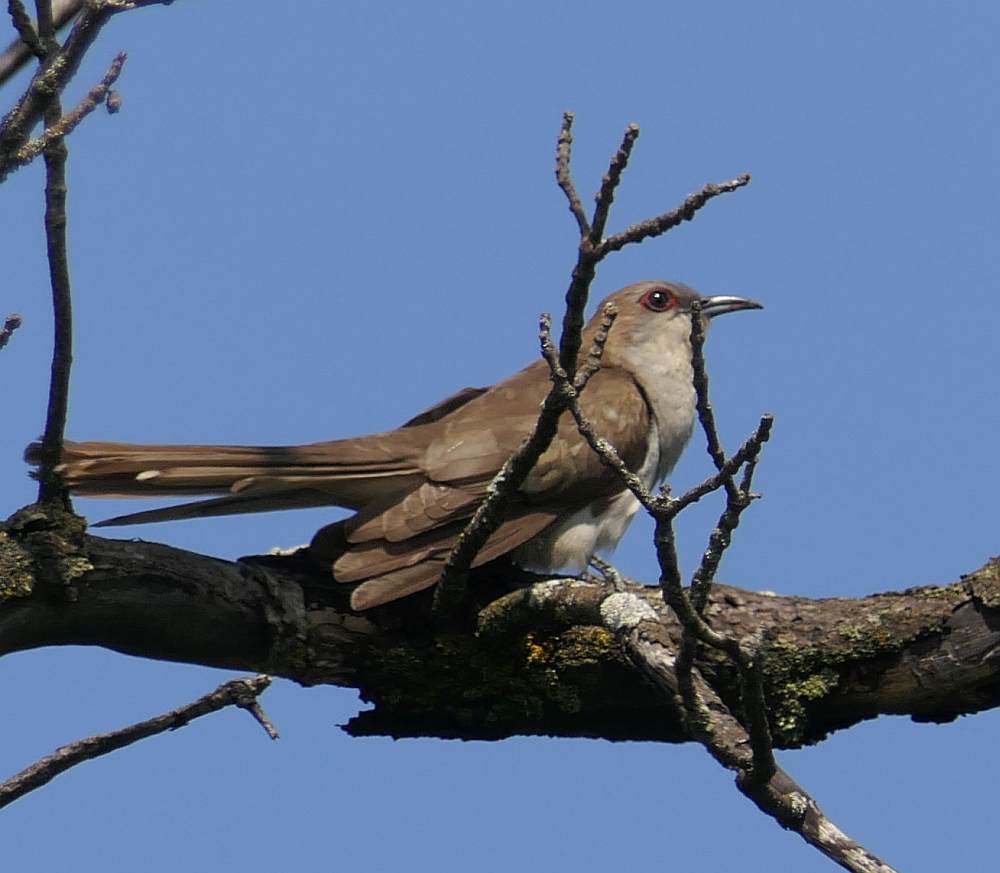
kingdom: Animalia
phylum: Chordata
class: Aves
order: Cuculiformes
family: Cuculidae
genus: Coccyzus
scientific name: Coccyzus erythropthalmus
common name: Black-billed cuckoo
